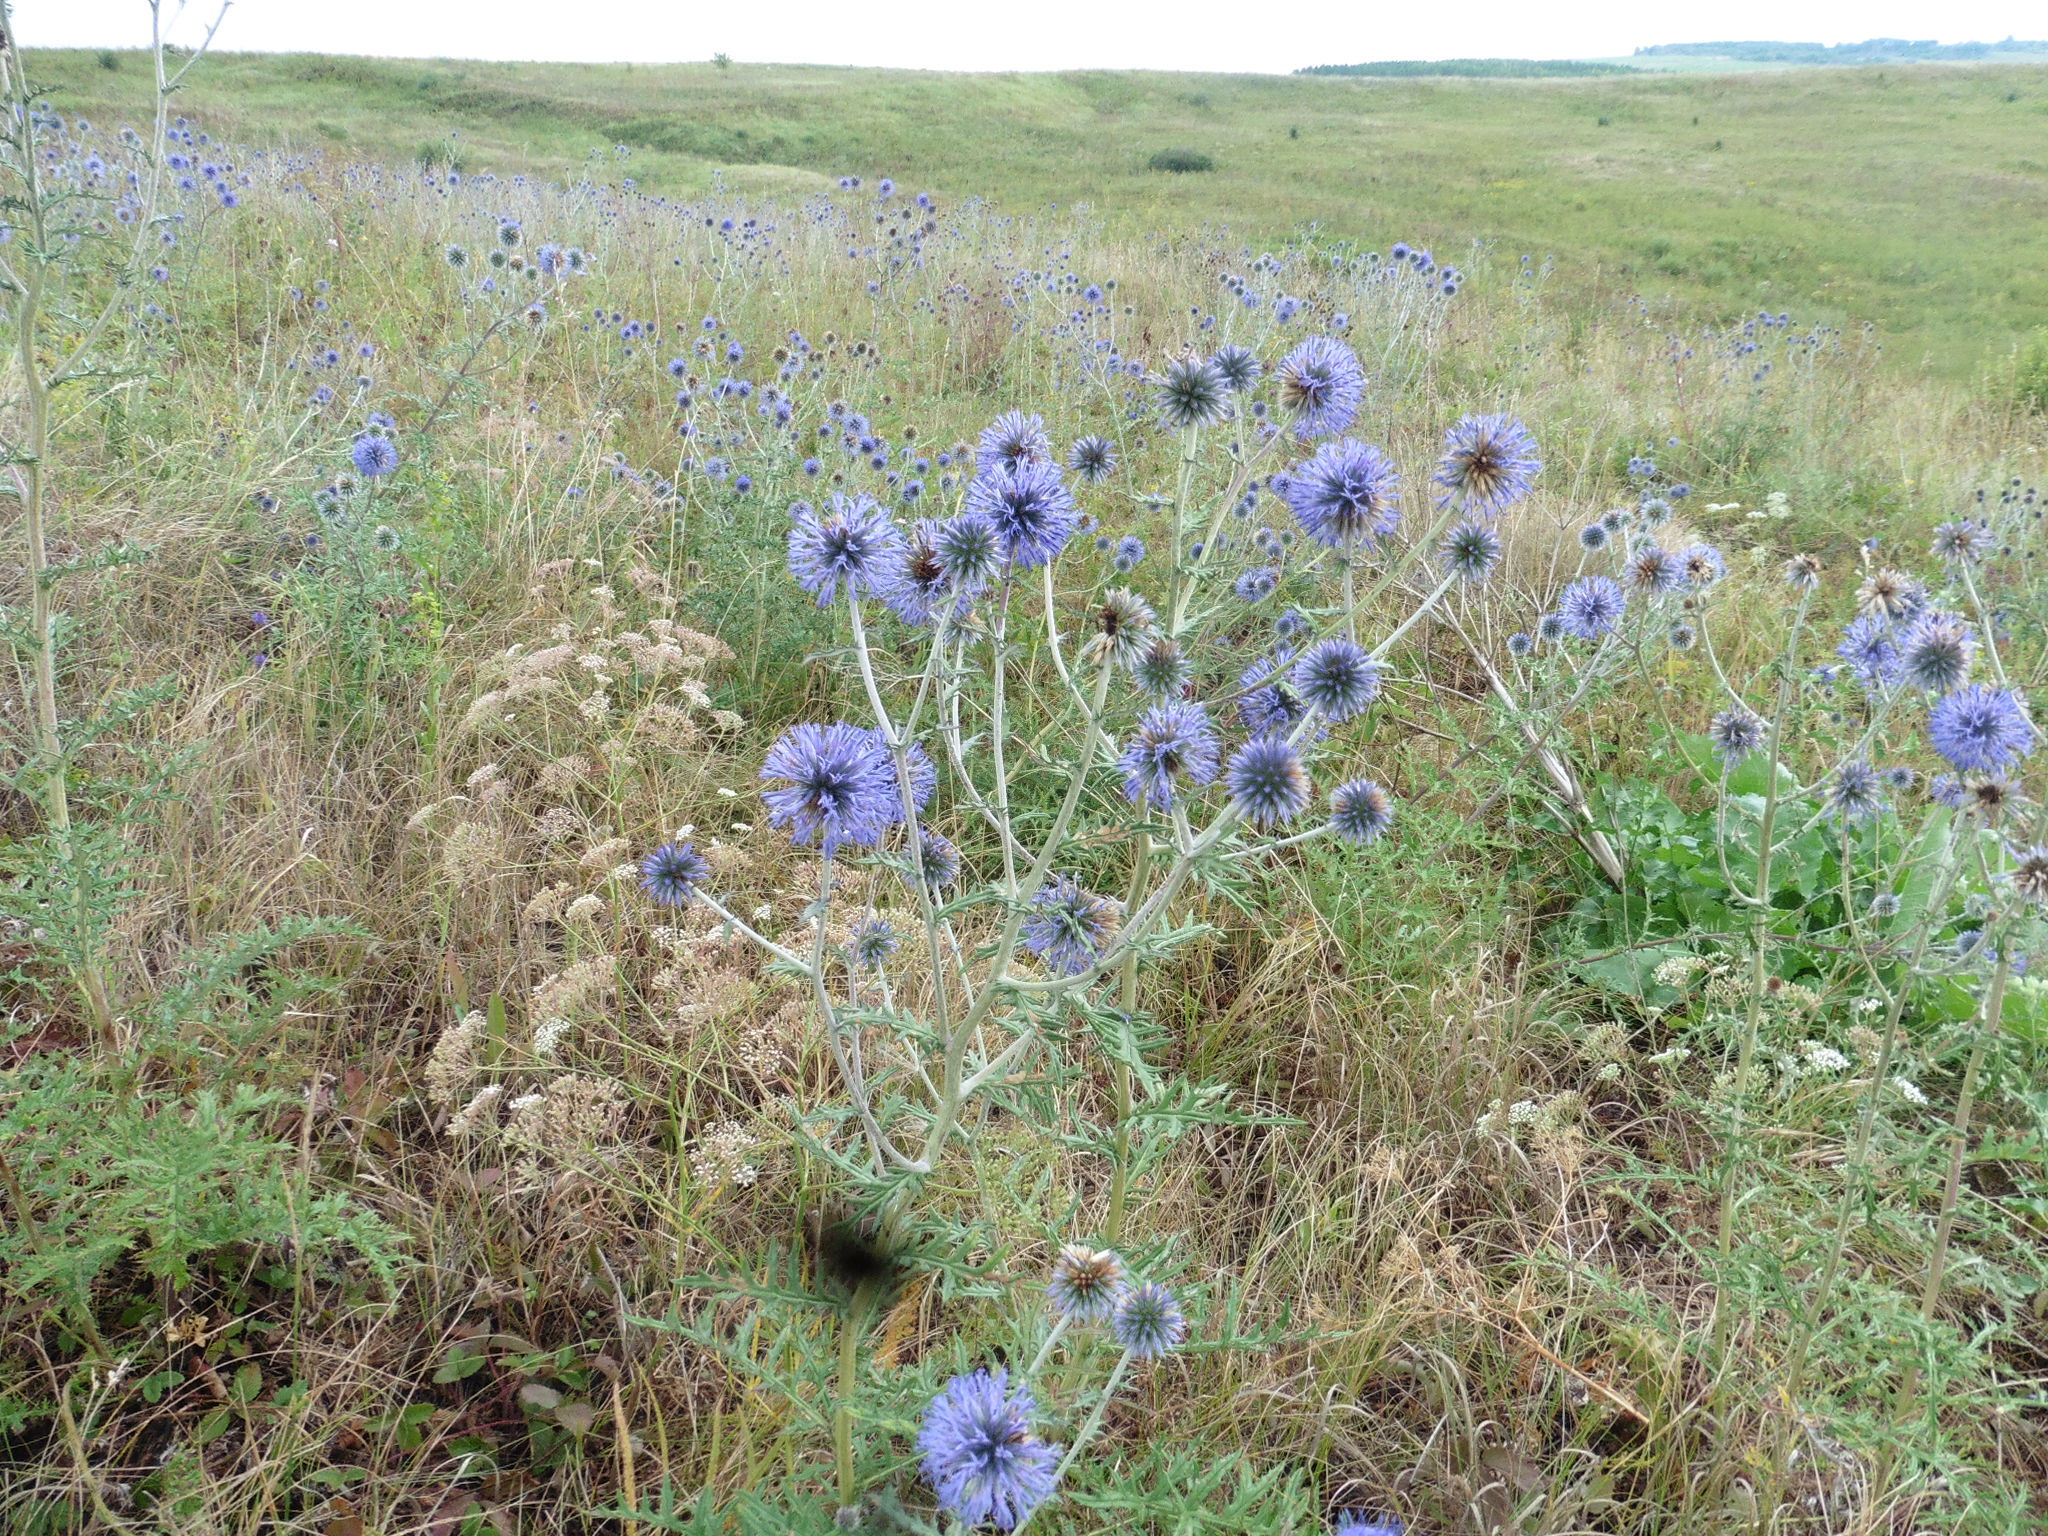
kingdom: Plantae
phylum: Tracheophyta
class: Magnoliopsida
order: Asterales
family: Asteraceae
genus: Echinops
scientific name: Echinops ritro
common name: Globe thistle
